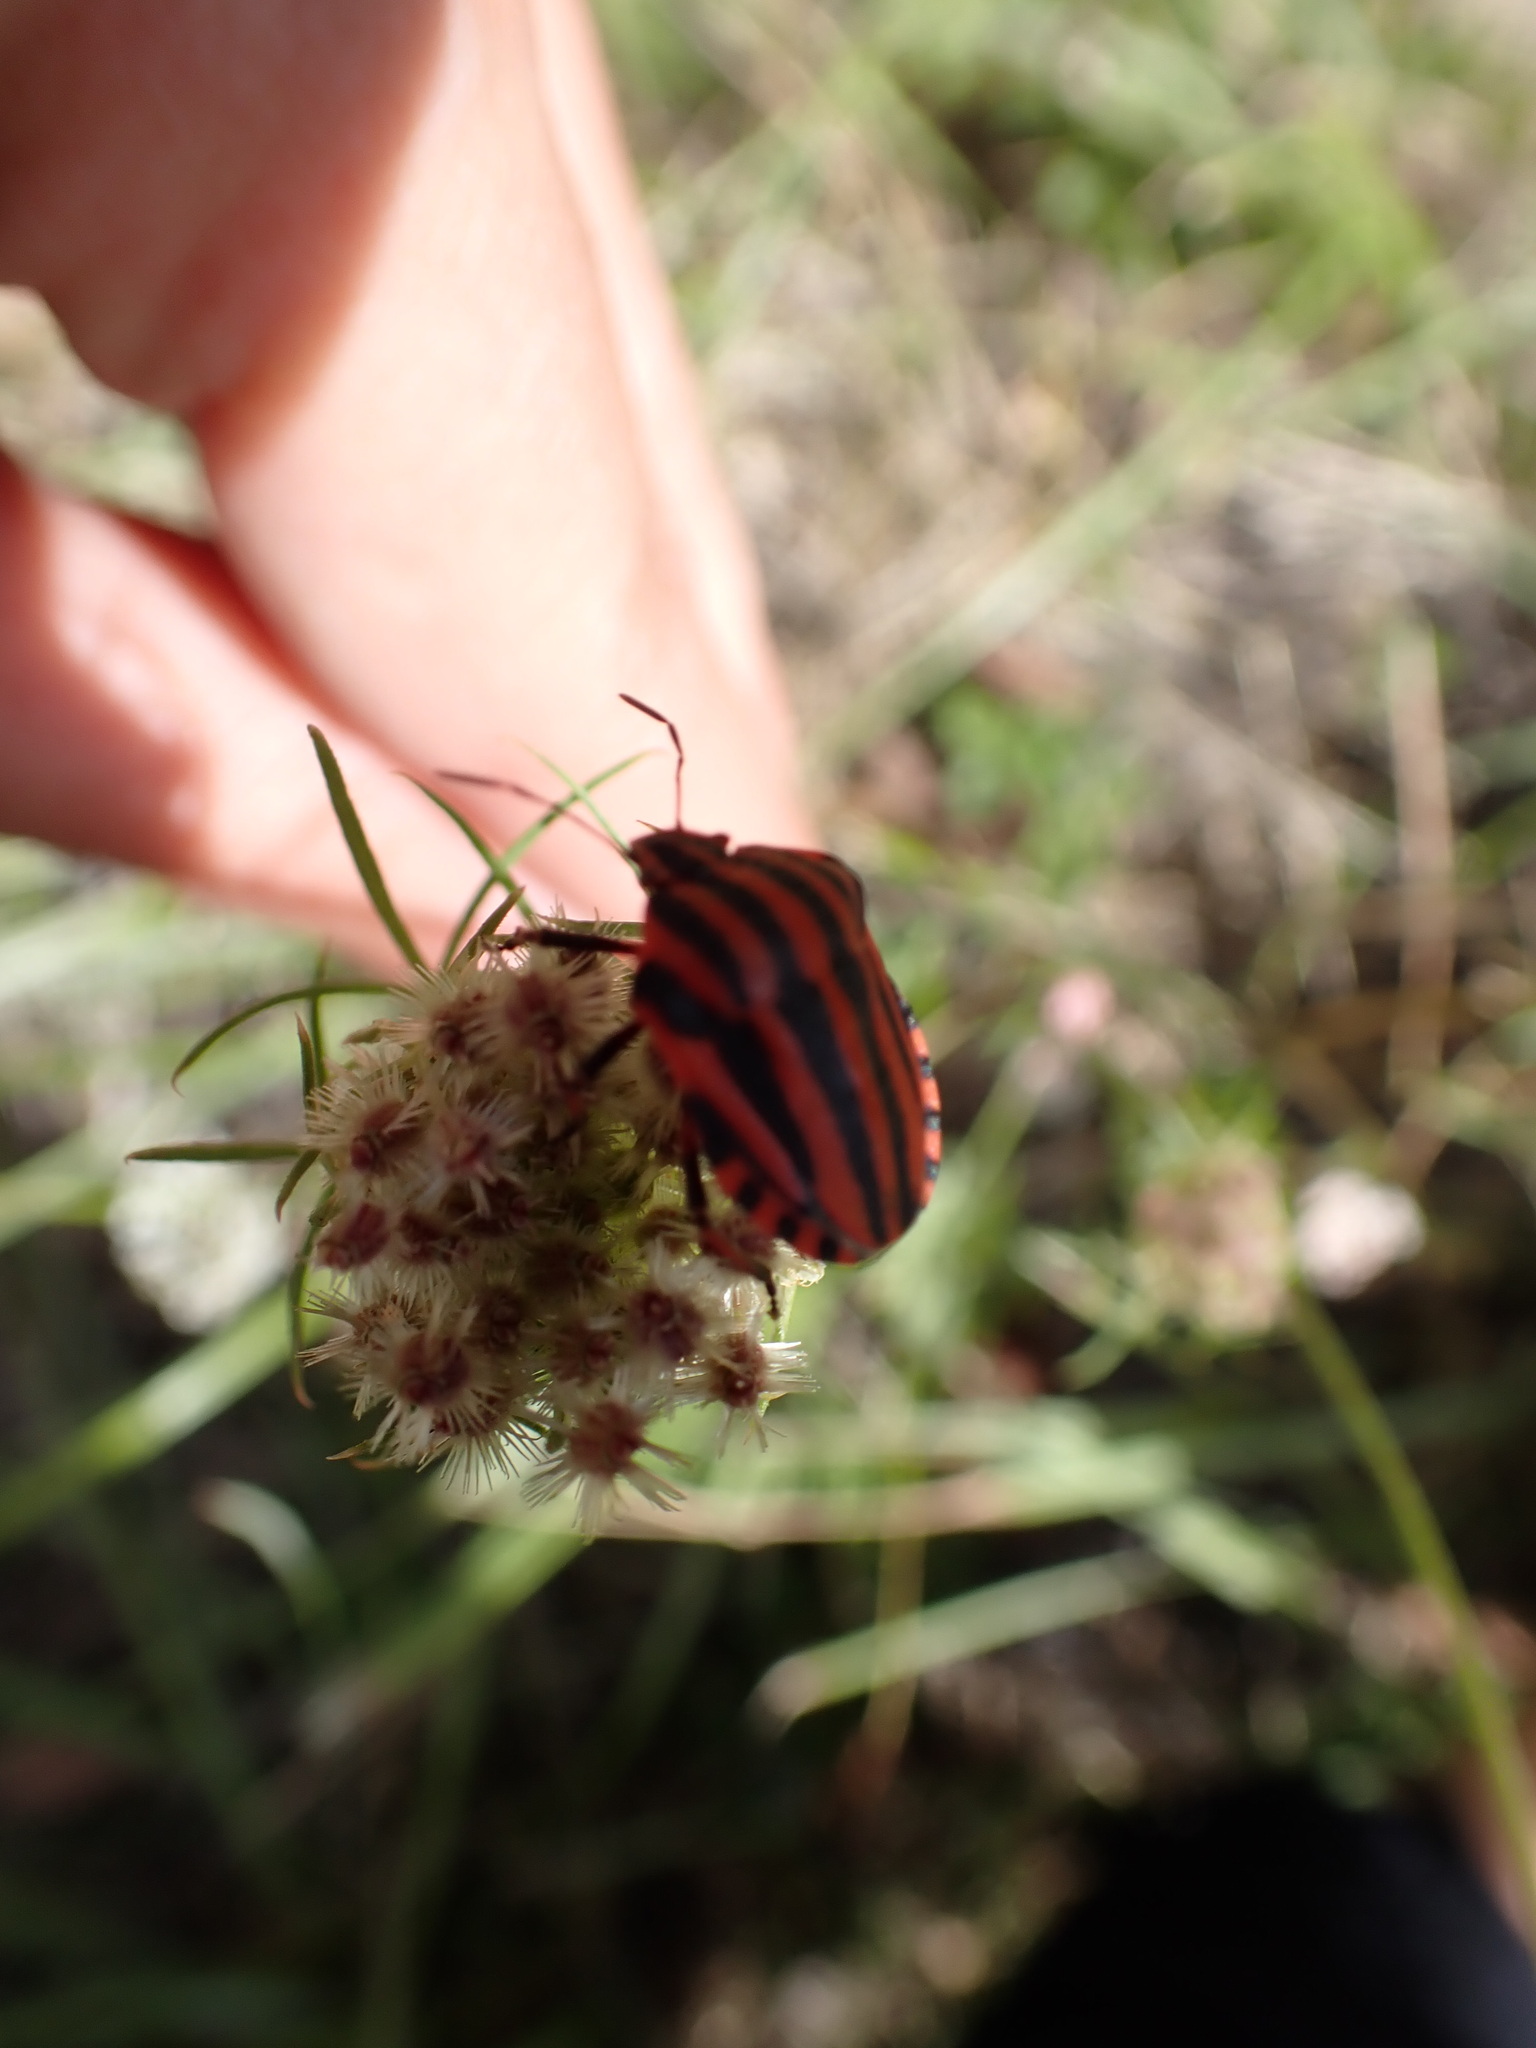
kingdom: Animalia
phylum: Arthropoda
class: Insecta
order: Hemiptera
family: Pentatomidae
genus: Graphosoma
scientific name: Graphosoma italicum
